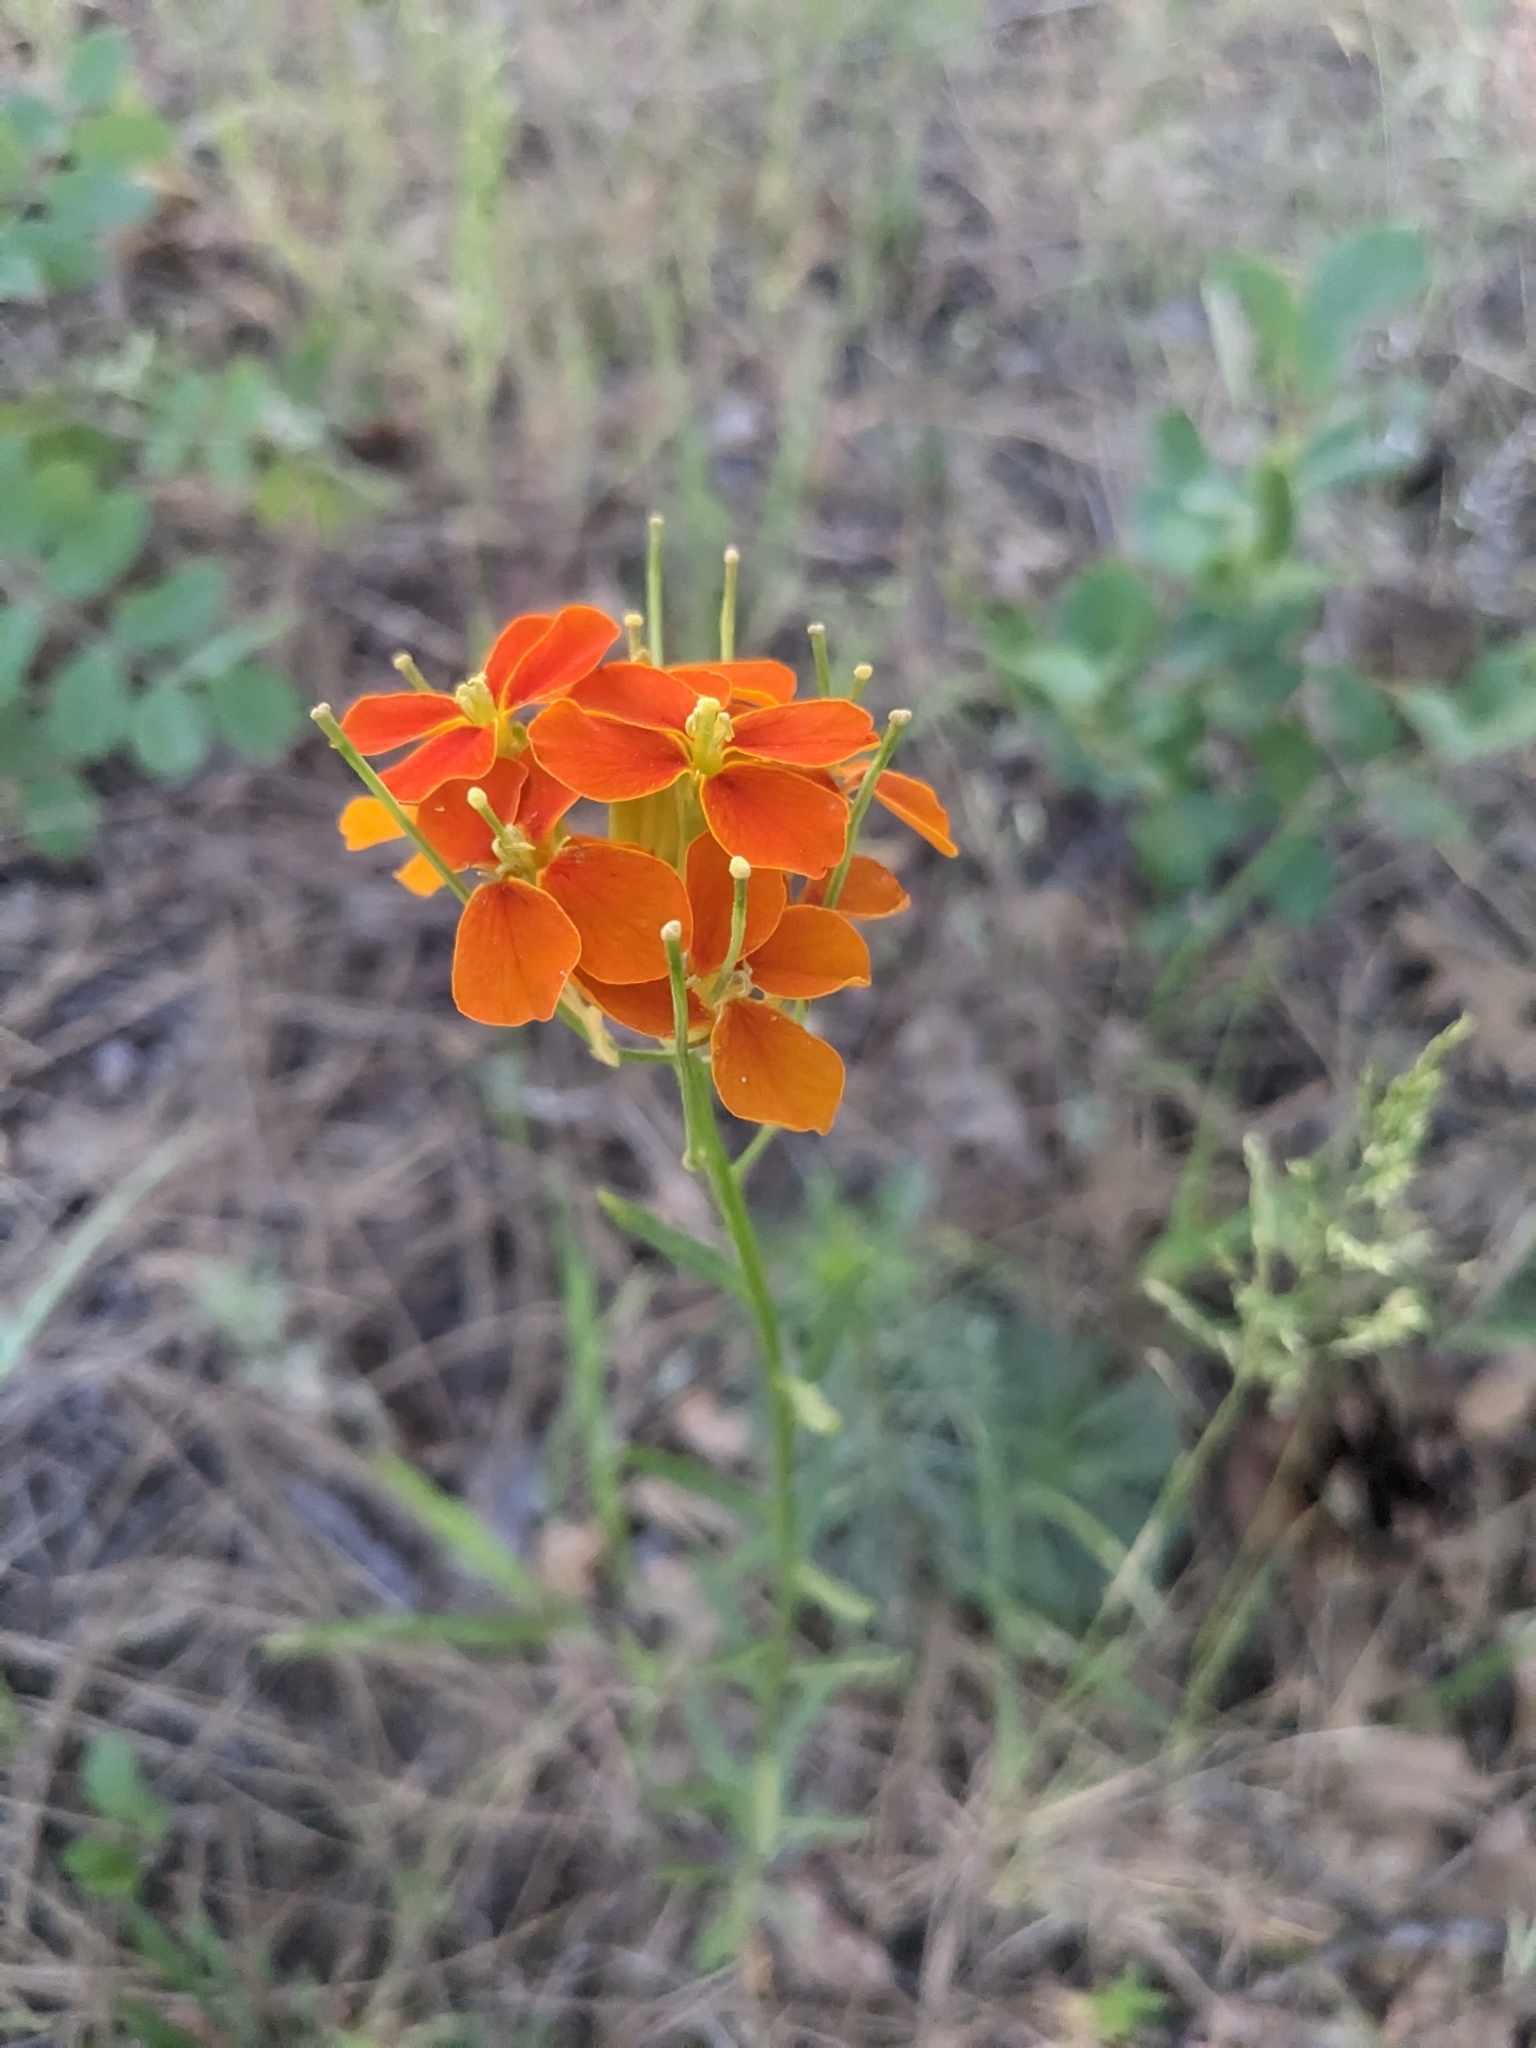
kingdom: Plantae
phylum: Tracheophyta
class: Magnoliopsida
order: Brassicales
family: Brassicaceae
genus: Erysimum
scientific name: Erysimum capitatum
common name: Western wallflower
